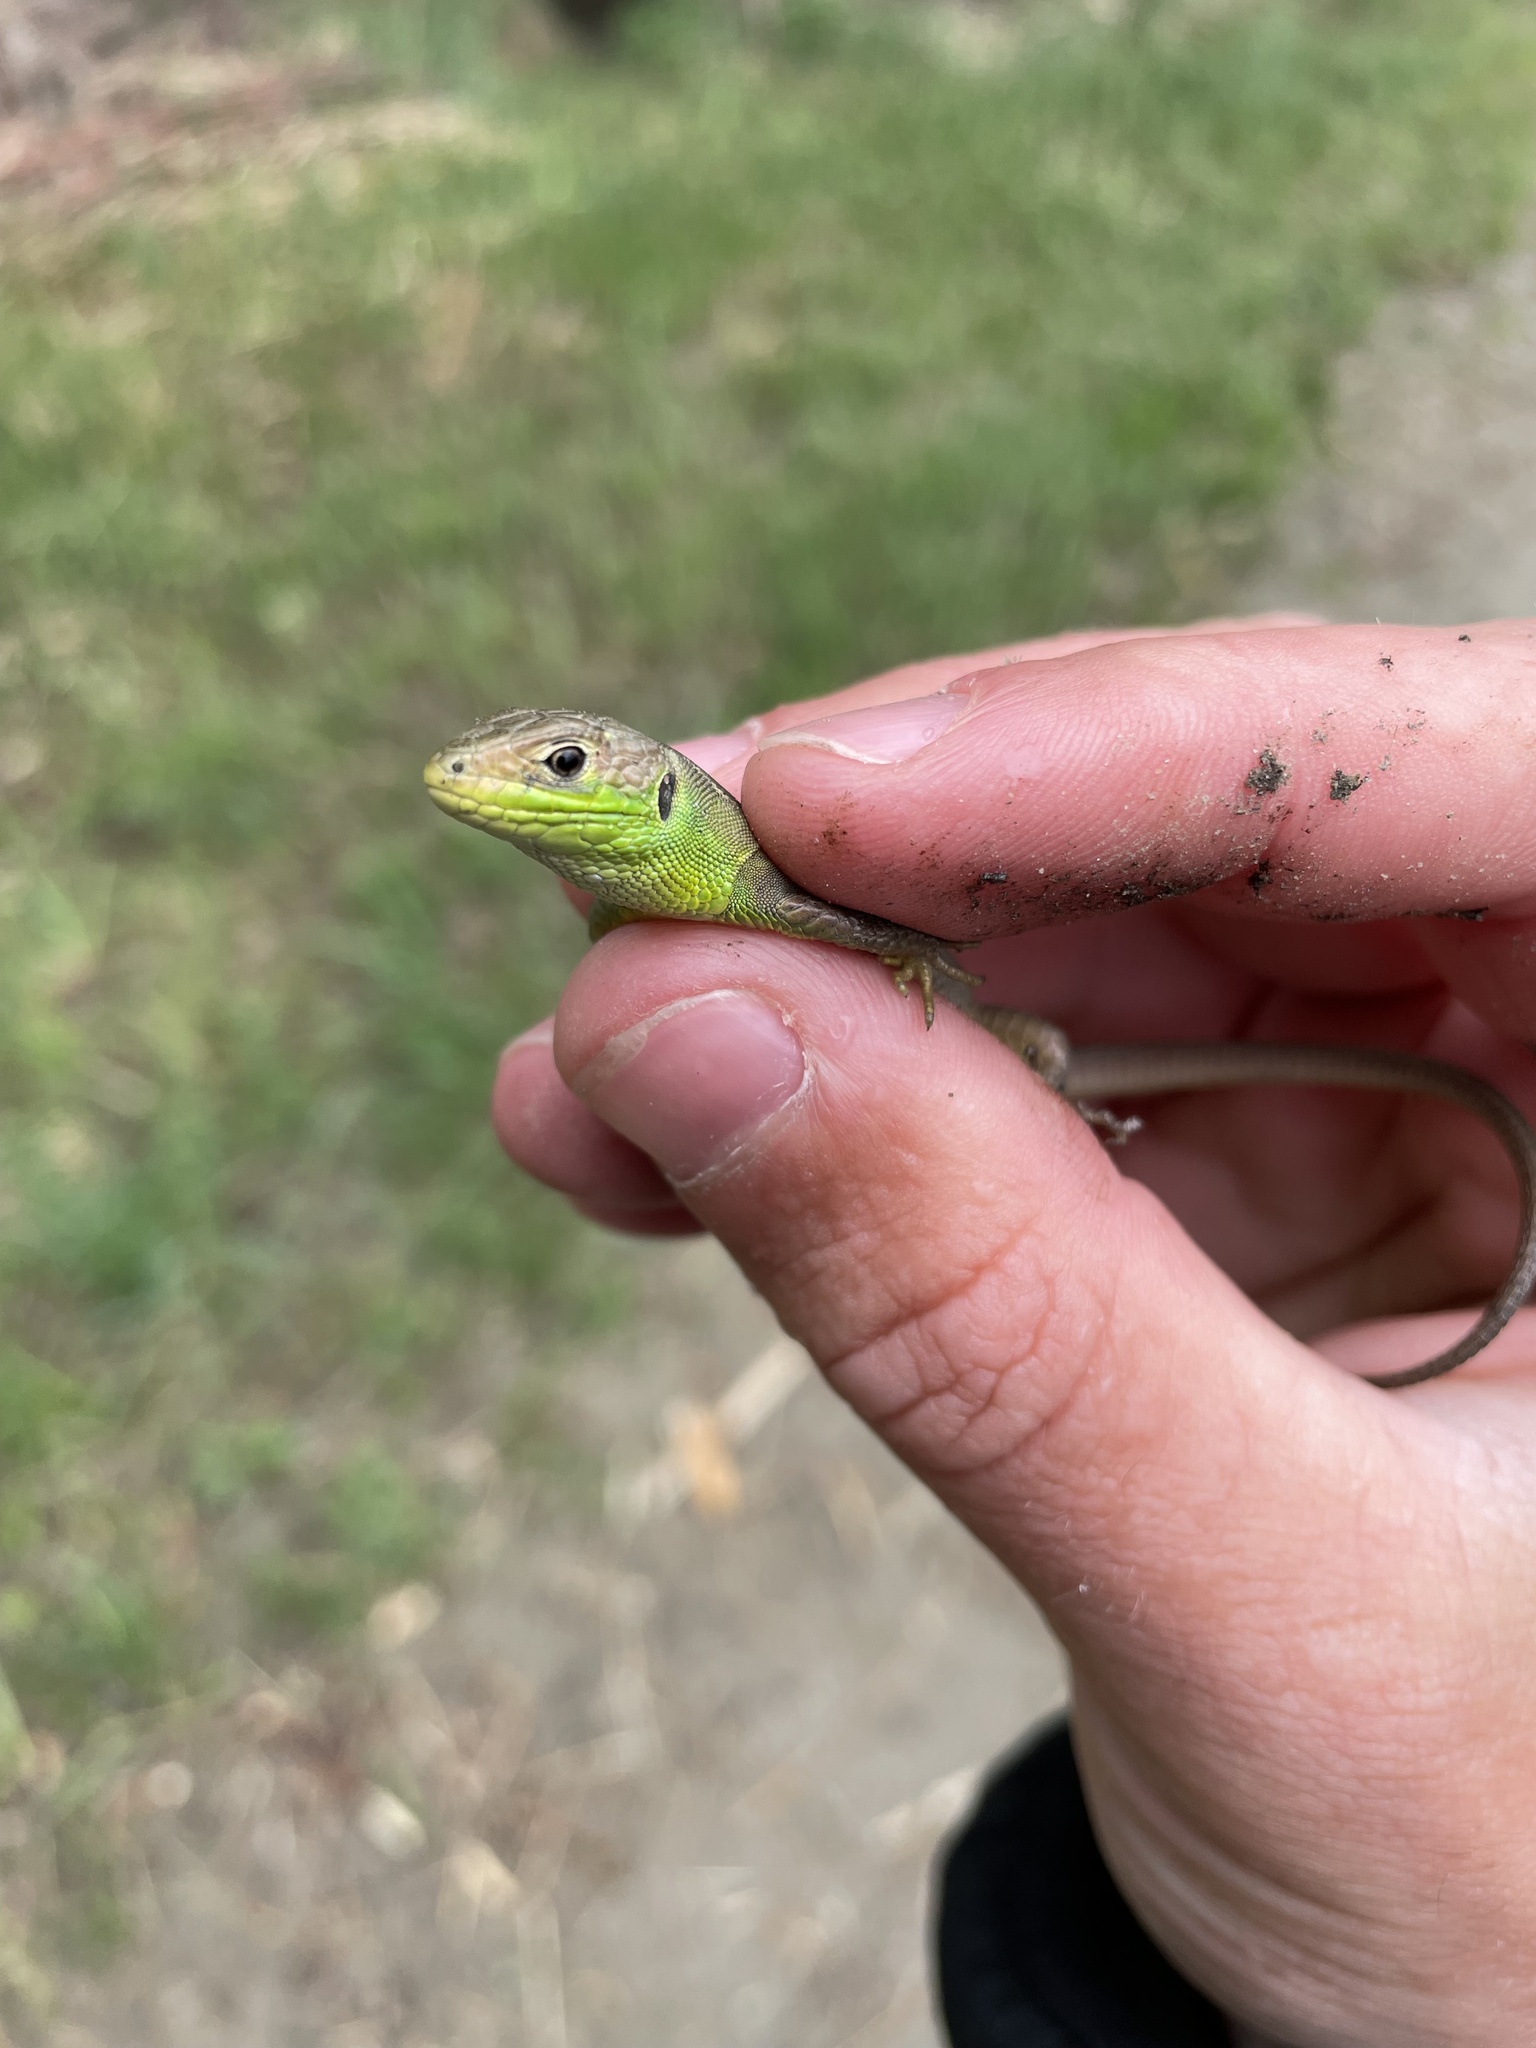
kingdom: Animalia
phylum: Chordata
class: Squamata
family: Lacertidae
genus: Lacerta
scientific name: Lacerta bilineata
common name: Western green lizard
